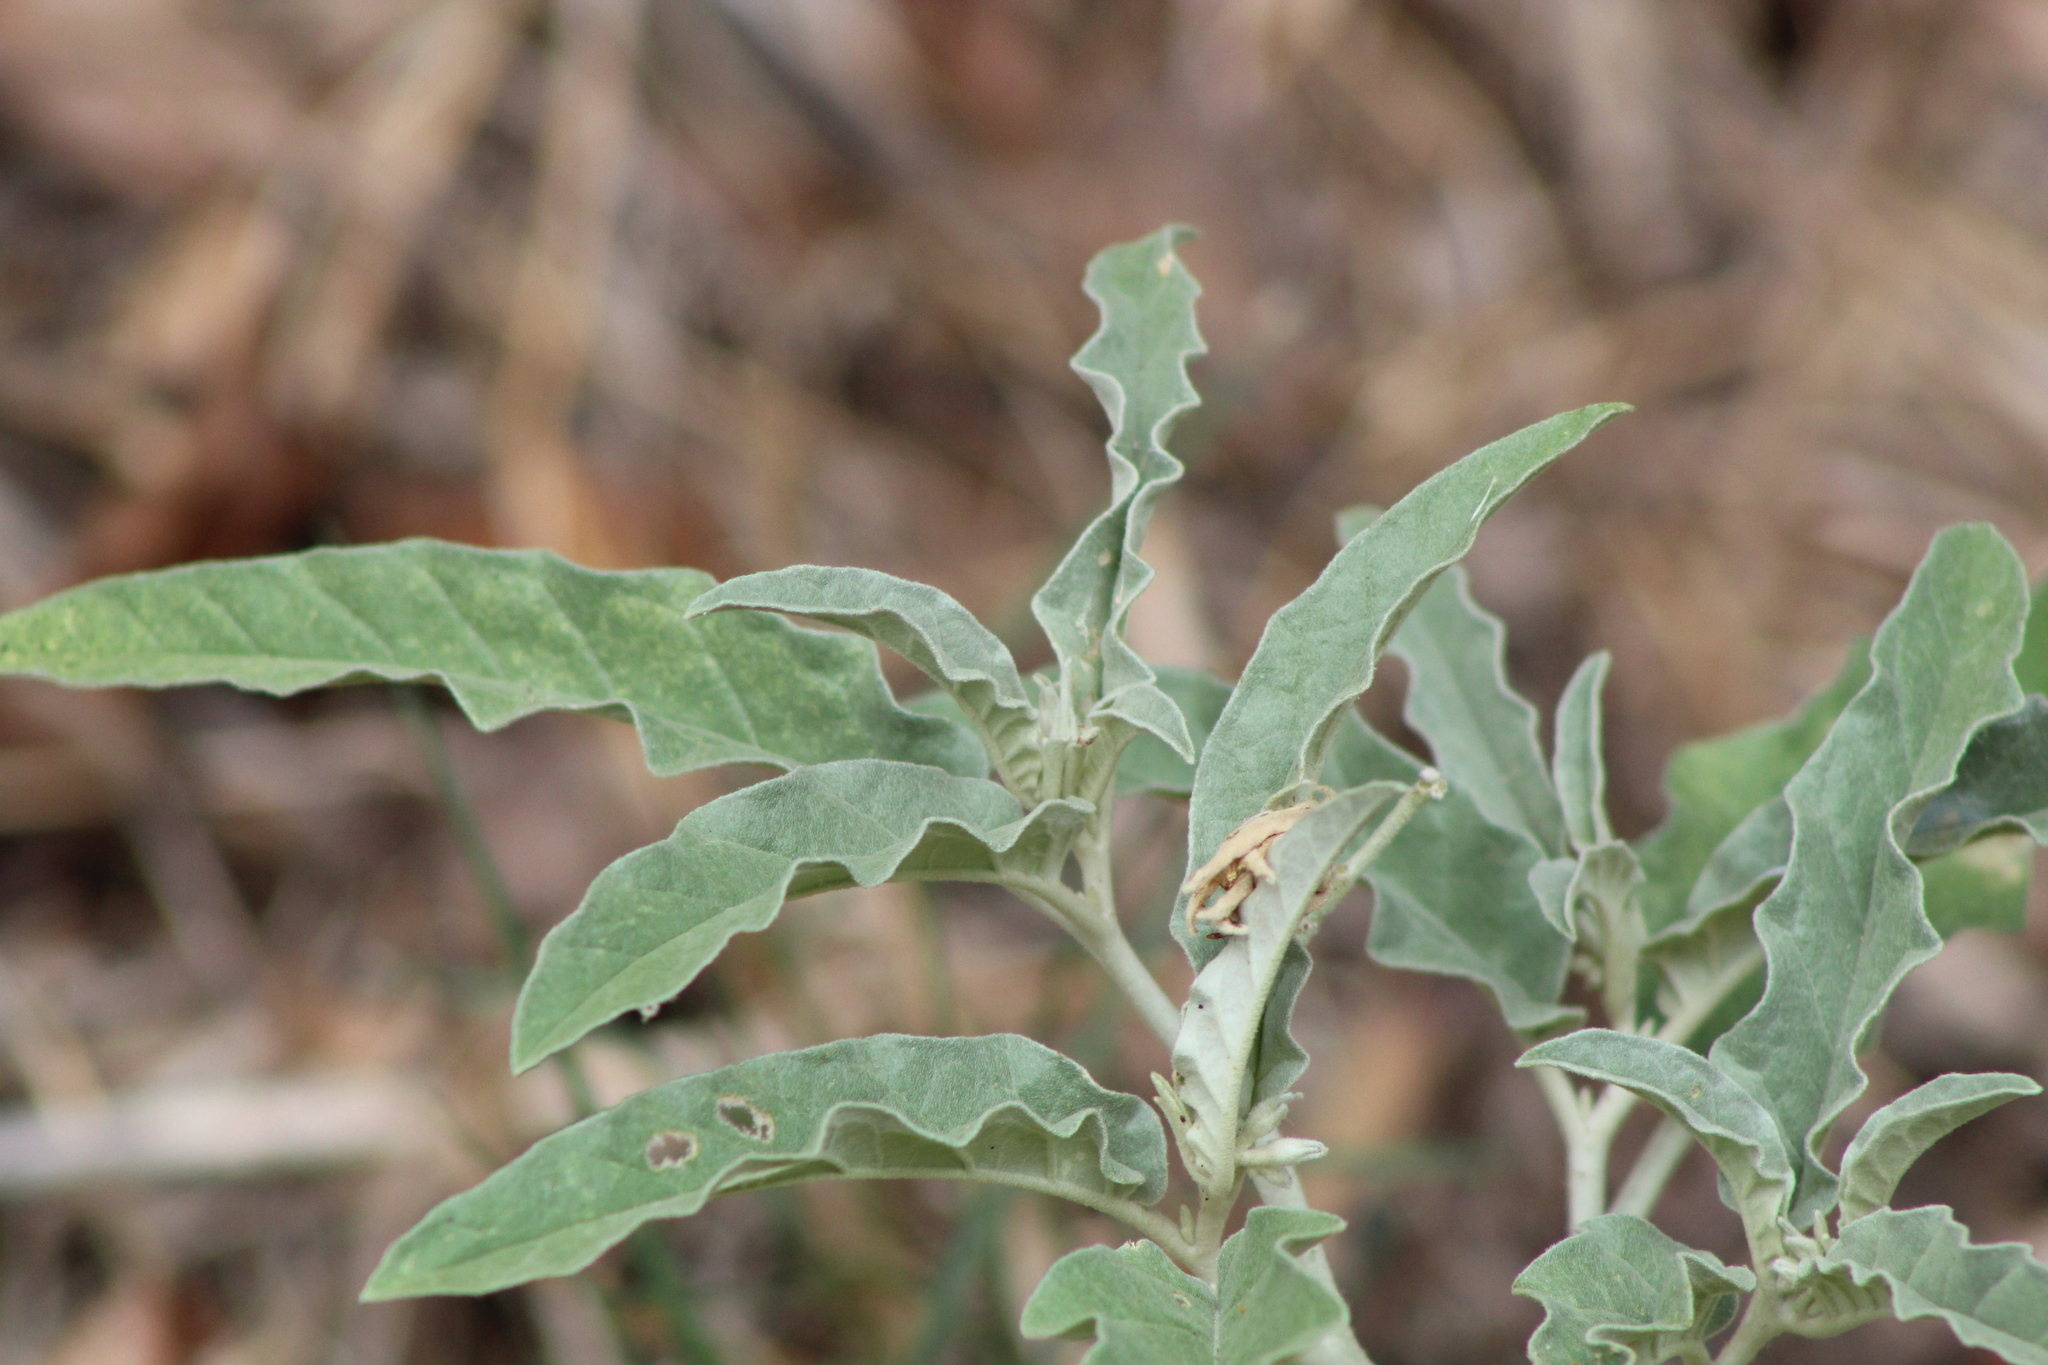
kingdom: Plantae
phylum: Tracheophyta
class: Magnoliopsida
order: Solanales
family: Solanaceae
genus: Solanum
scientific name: Solanum elaeagnifolium
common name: Silverleaf nightshade
